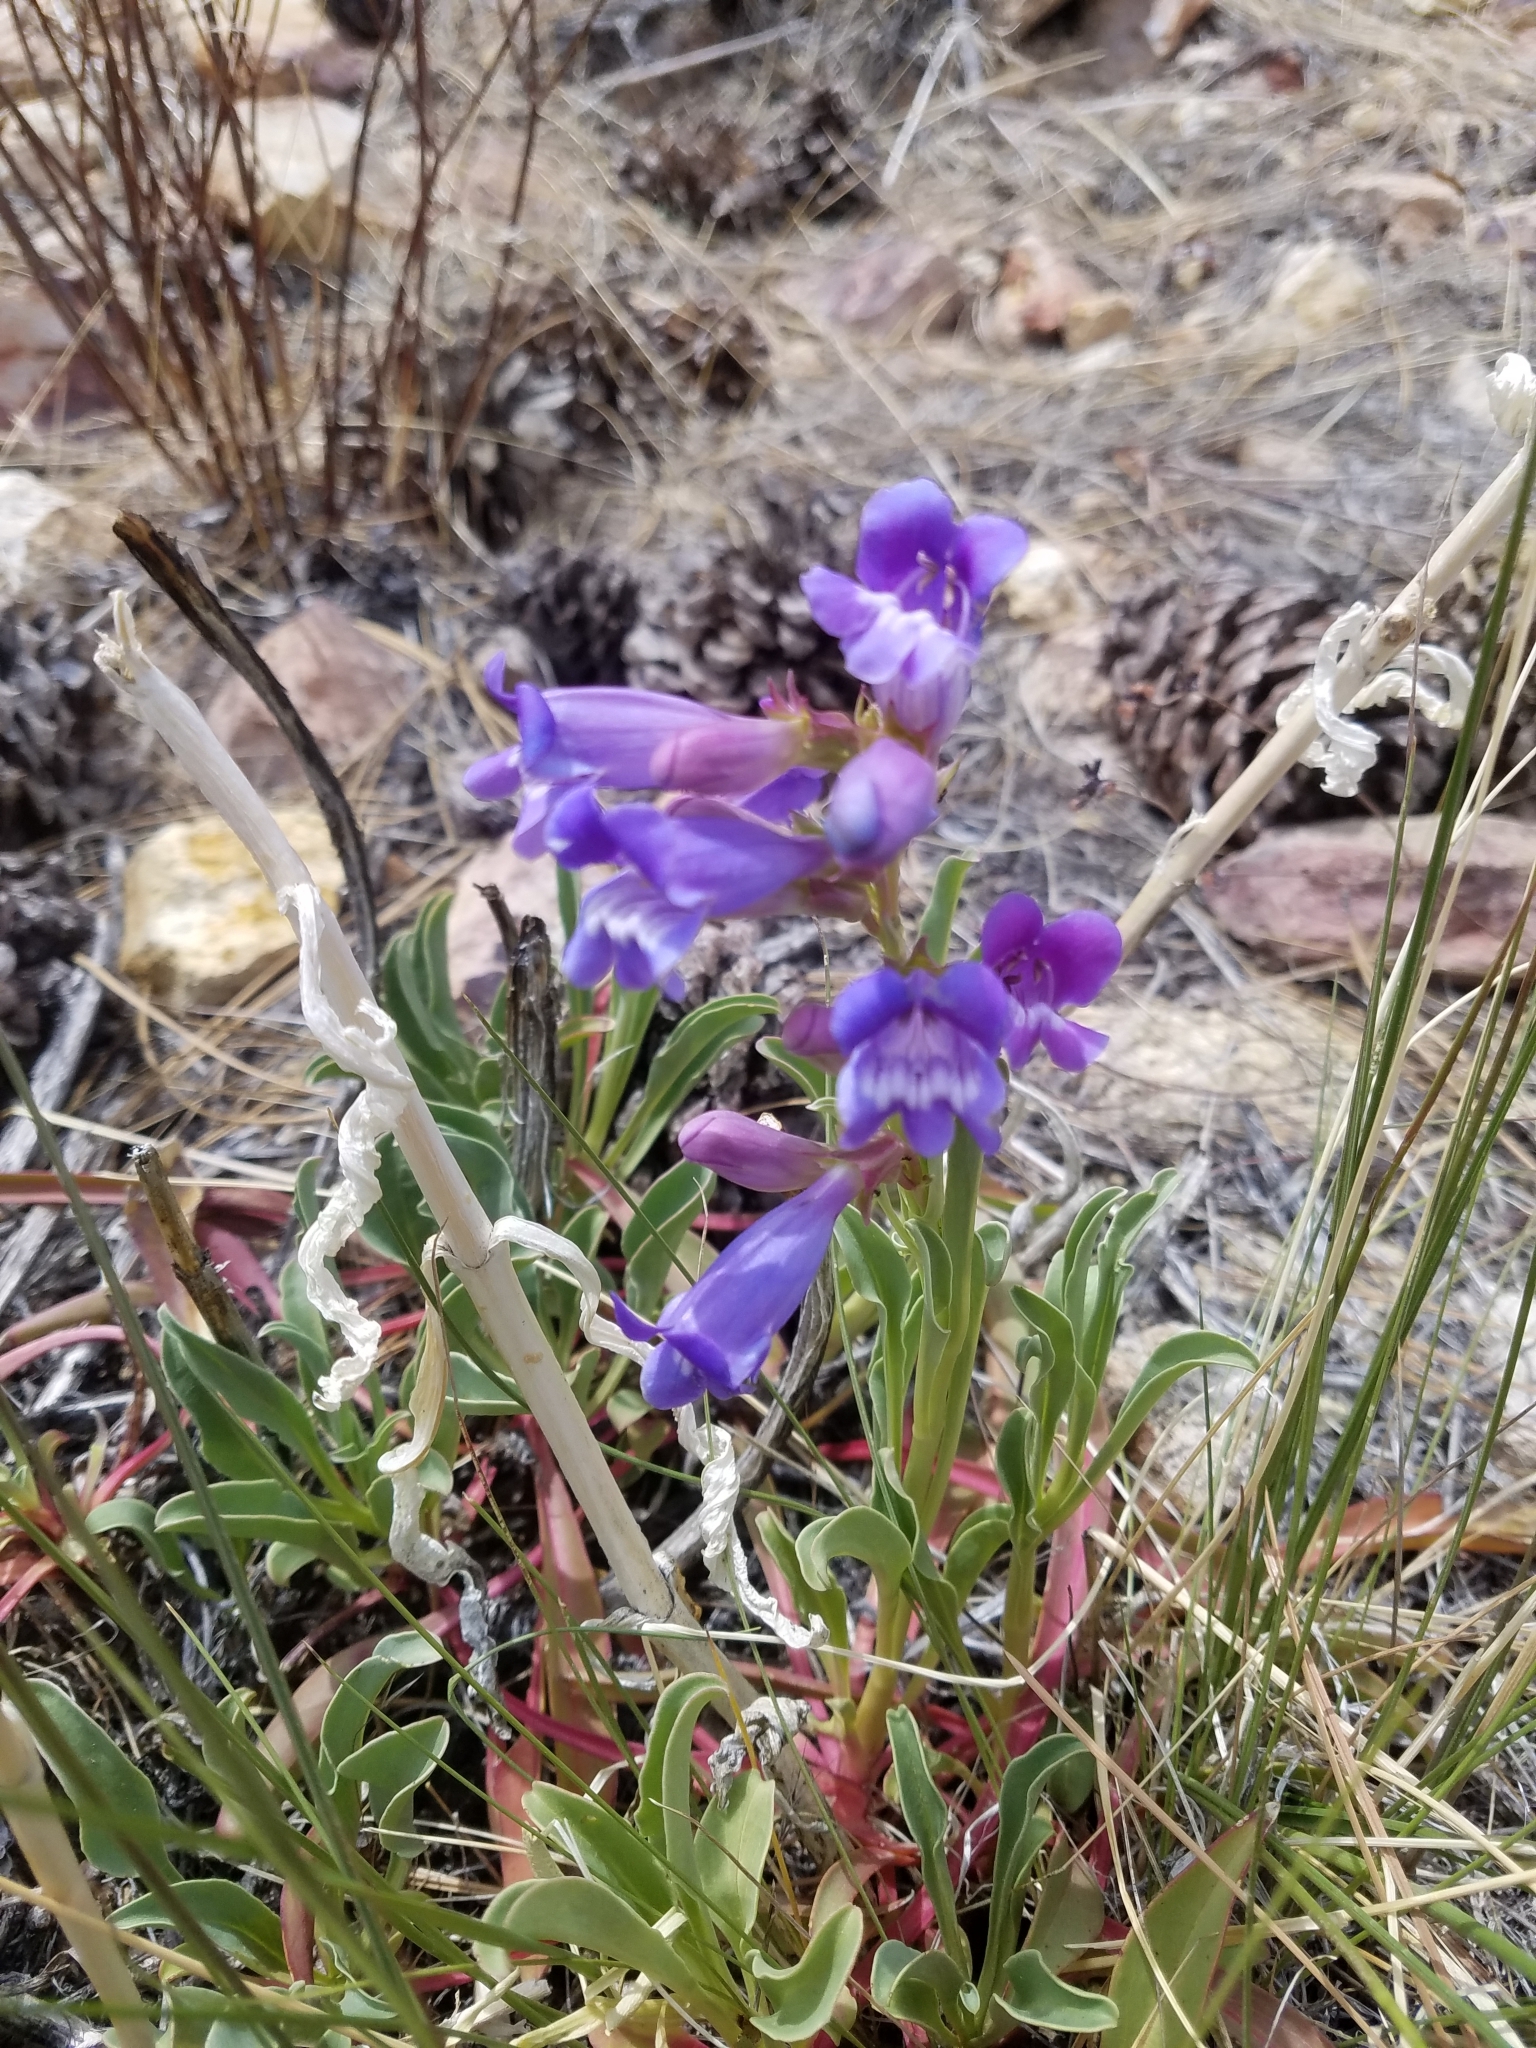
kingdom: Plantae
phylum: Tracheophyta
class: Magnoliopsida
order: Lamiales
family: Plantaginaceae
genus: Penstemon
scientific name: Penstemon speciosus
